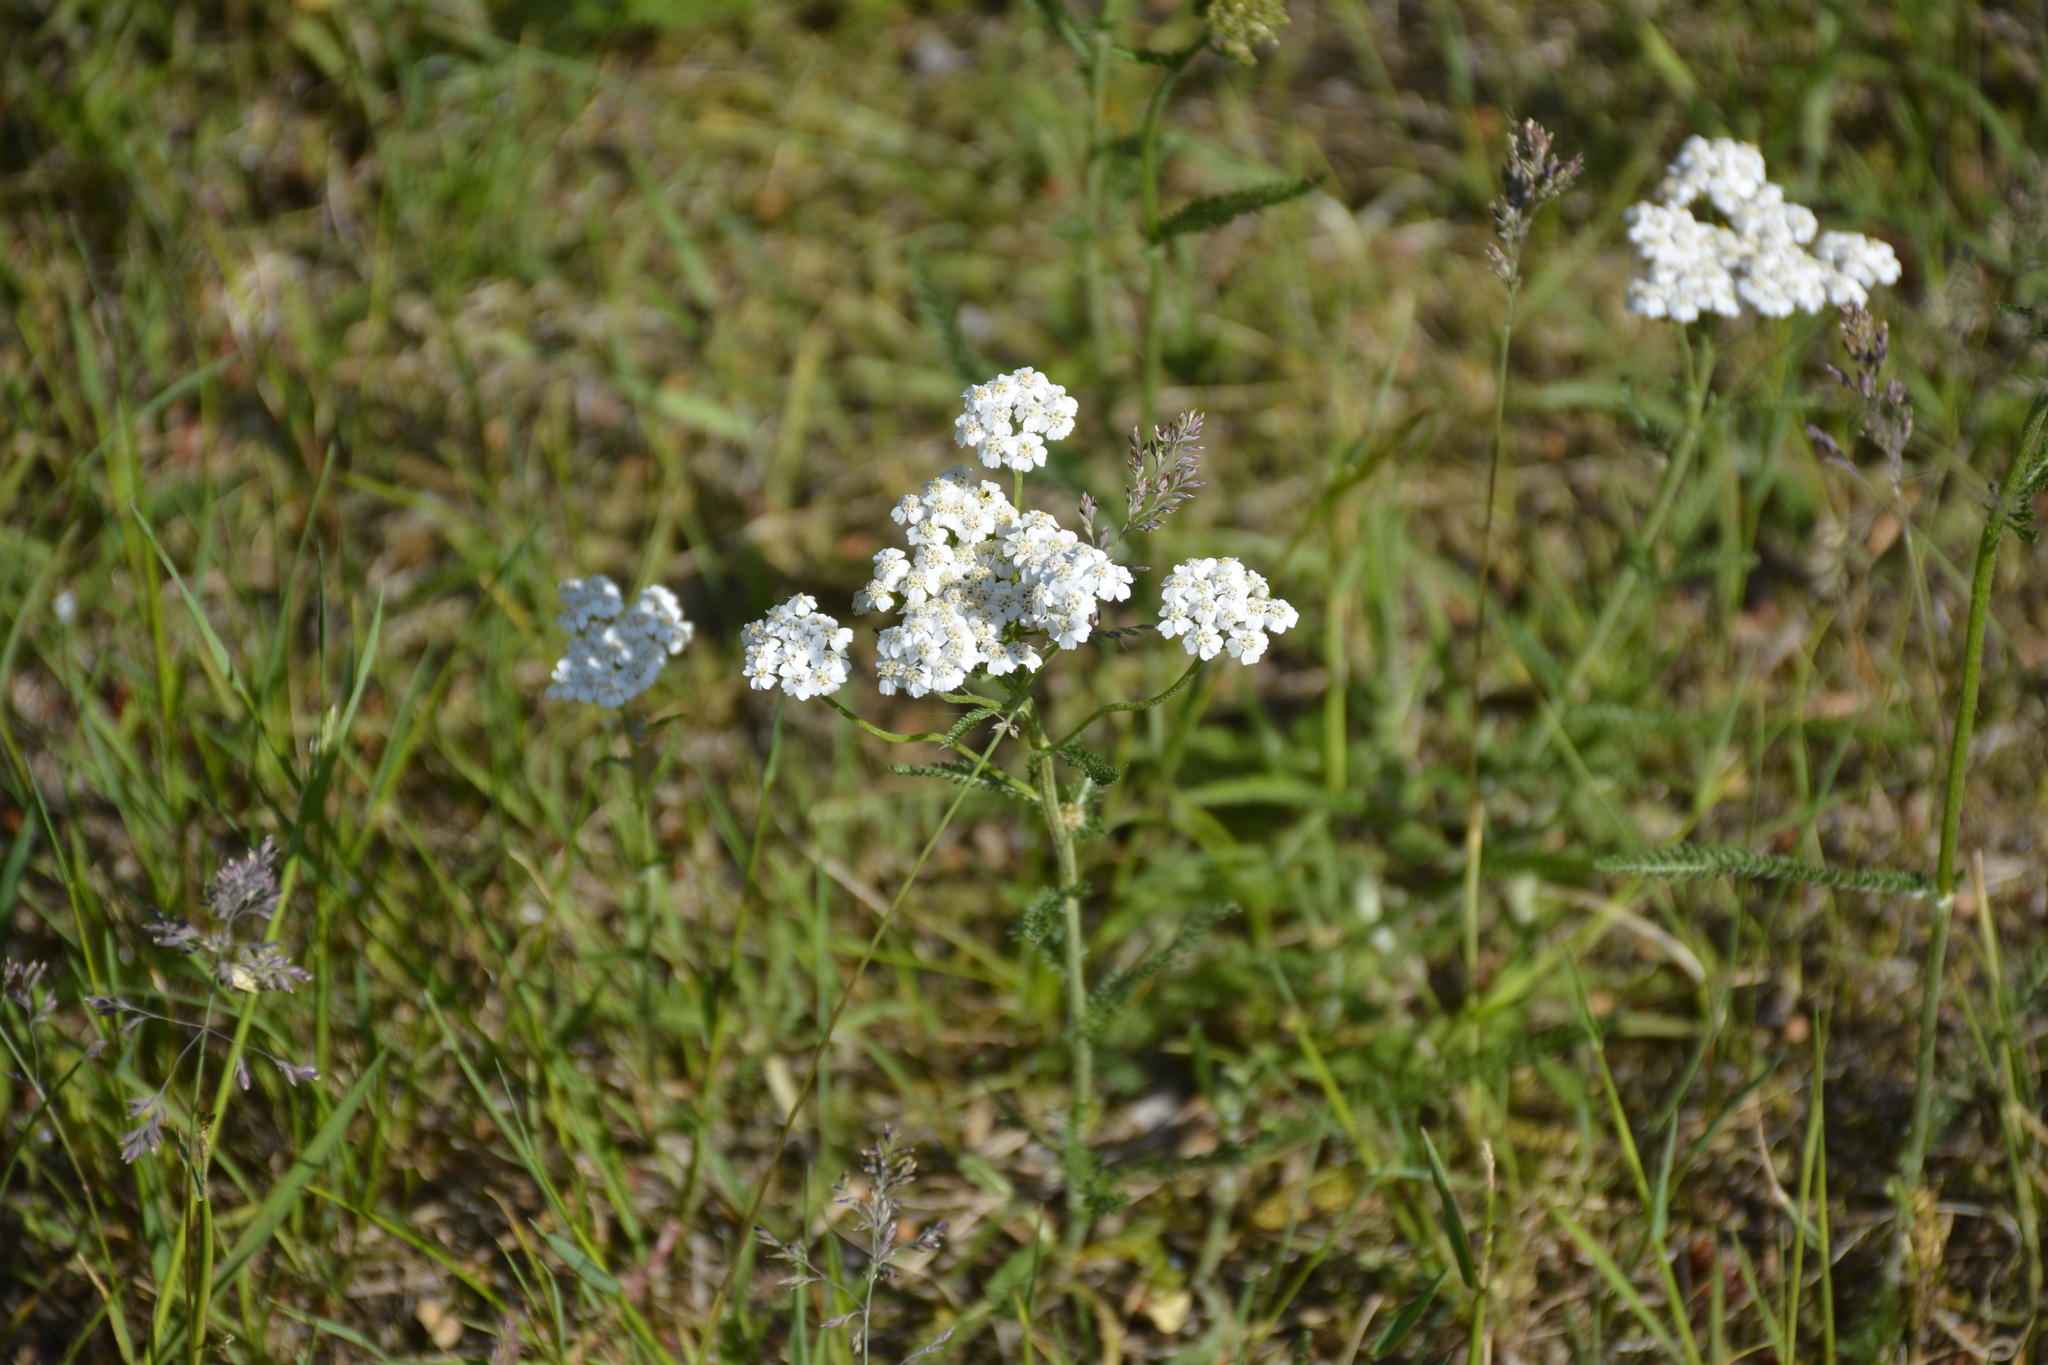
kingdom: Plantae
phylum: Tracheophyta
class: Magnoliopsida
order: Asterales
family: Asteraceae
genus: Achillea
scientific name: Achillea millefolium
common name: Yarrow
